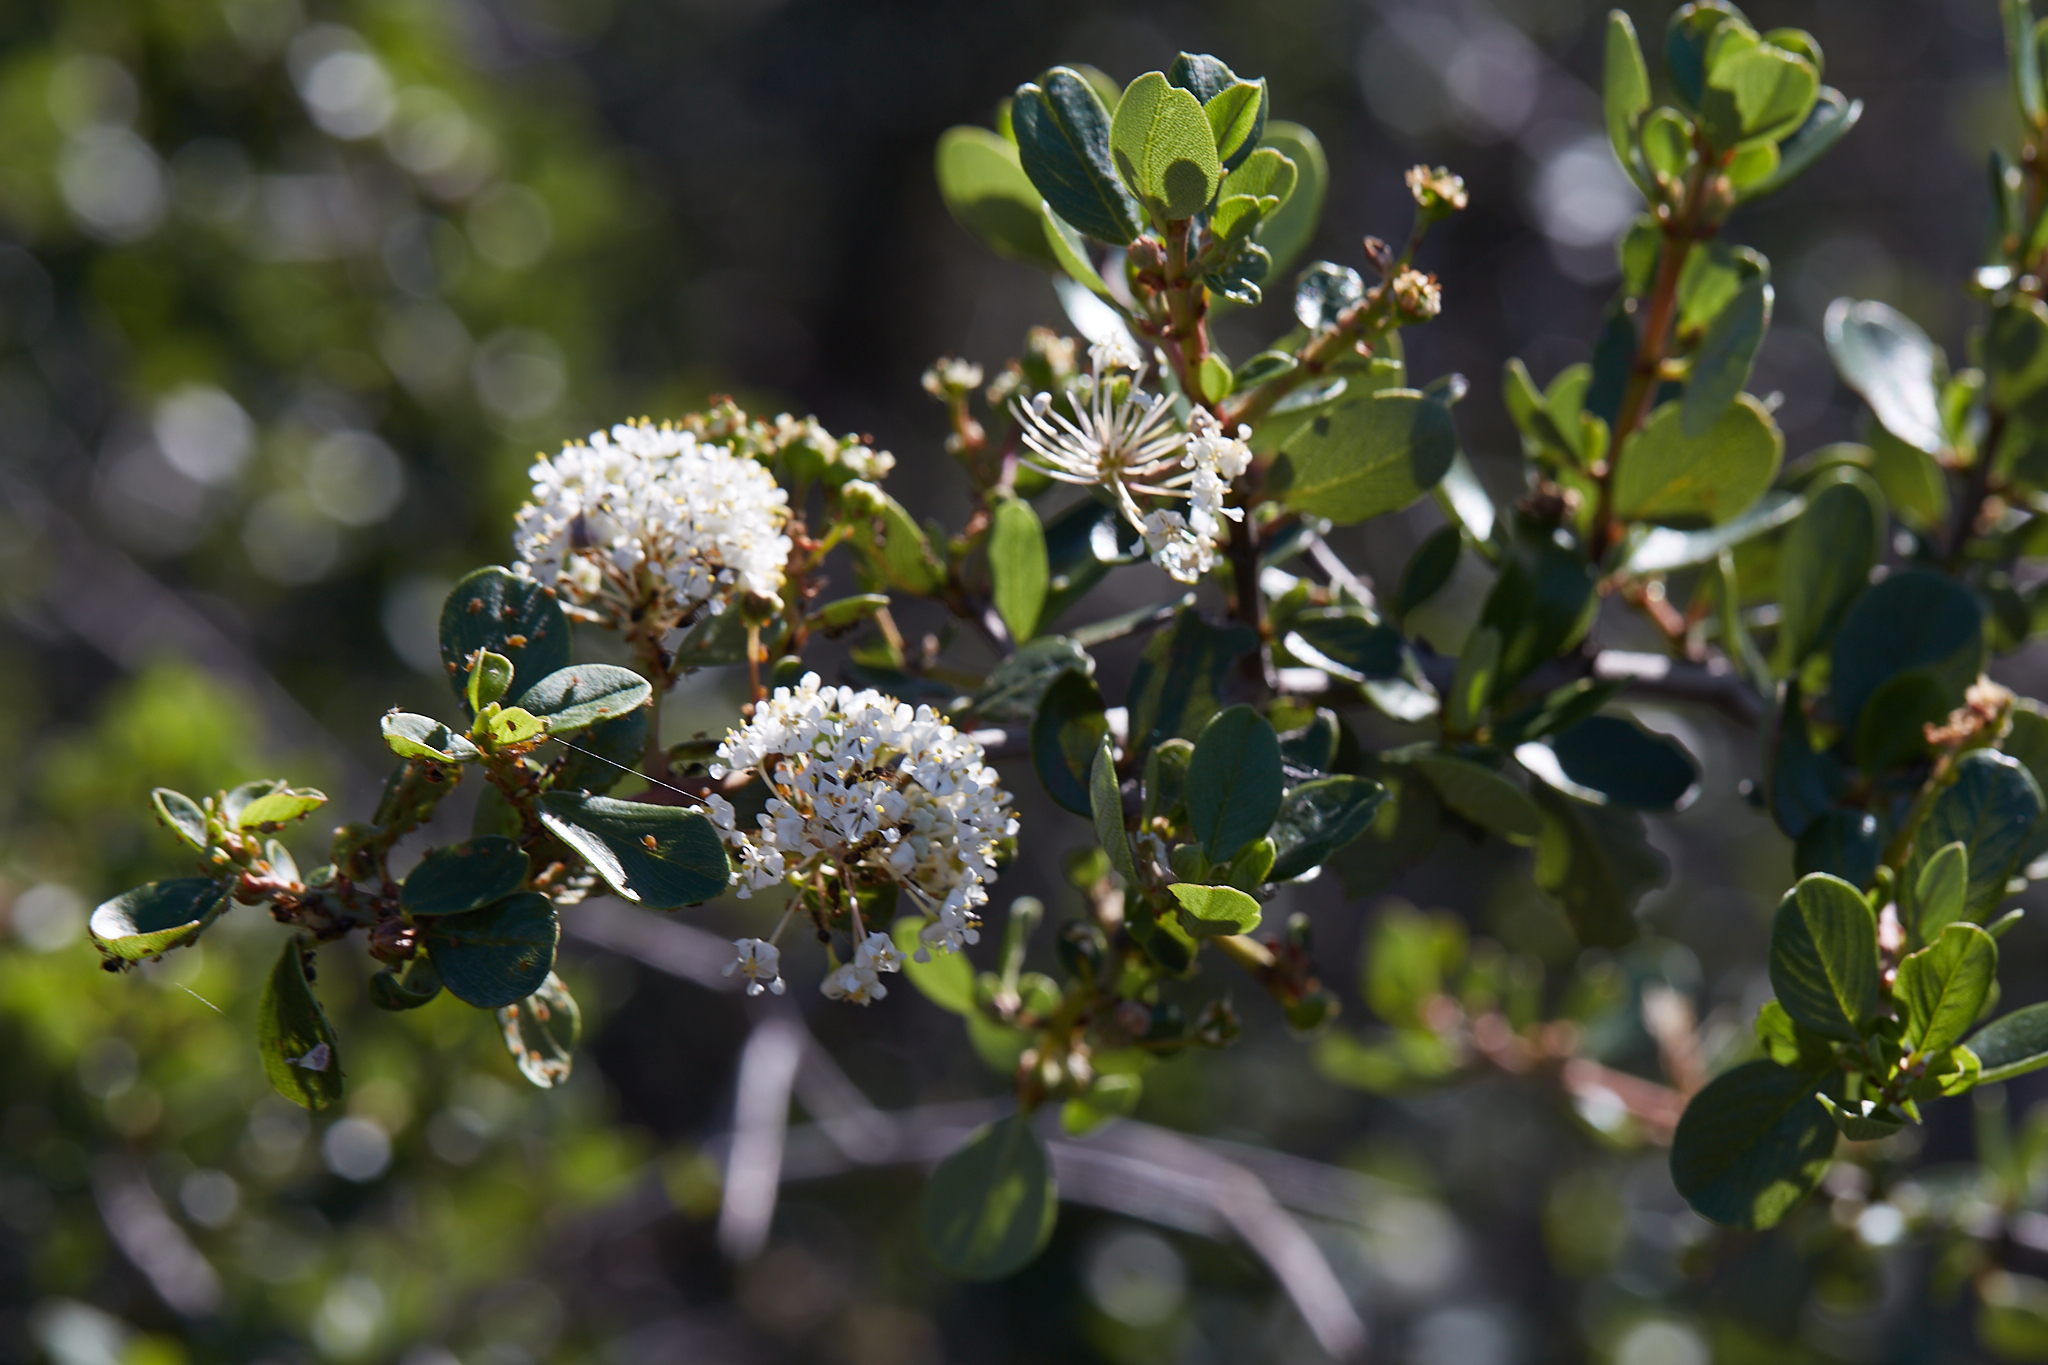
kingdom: Plantae
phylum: Tracheophyta
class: Magnoliopsida
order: Rosales
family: Rhamnaceae
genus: Ceanothus
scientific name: Ceanothus cuneatus
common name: Cuneate ceanothus
